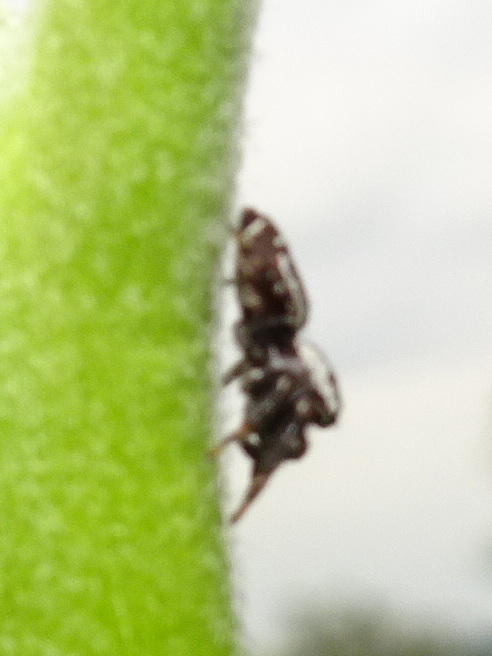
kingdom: Animalia
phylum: Arthropoda
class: Arachnida
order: Araneae
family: Salticidae
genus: Pelegrina
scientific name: Pelegrina galathea
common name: Jumping spiders
